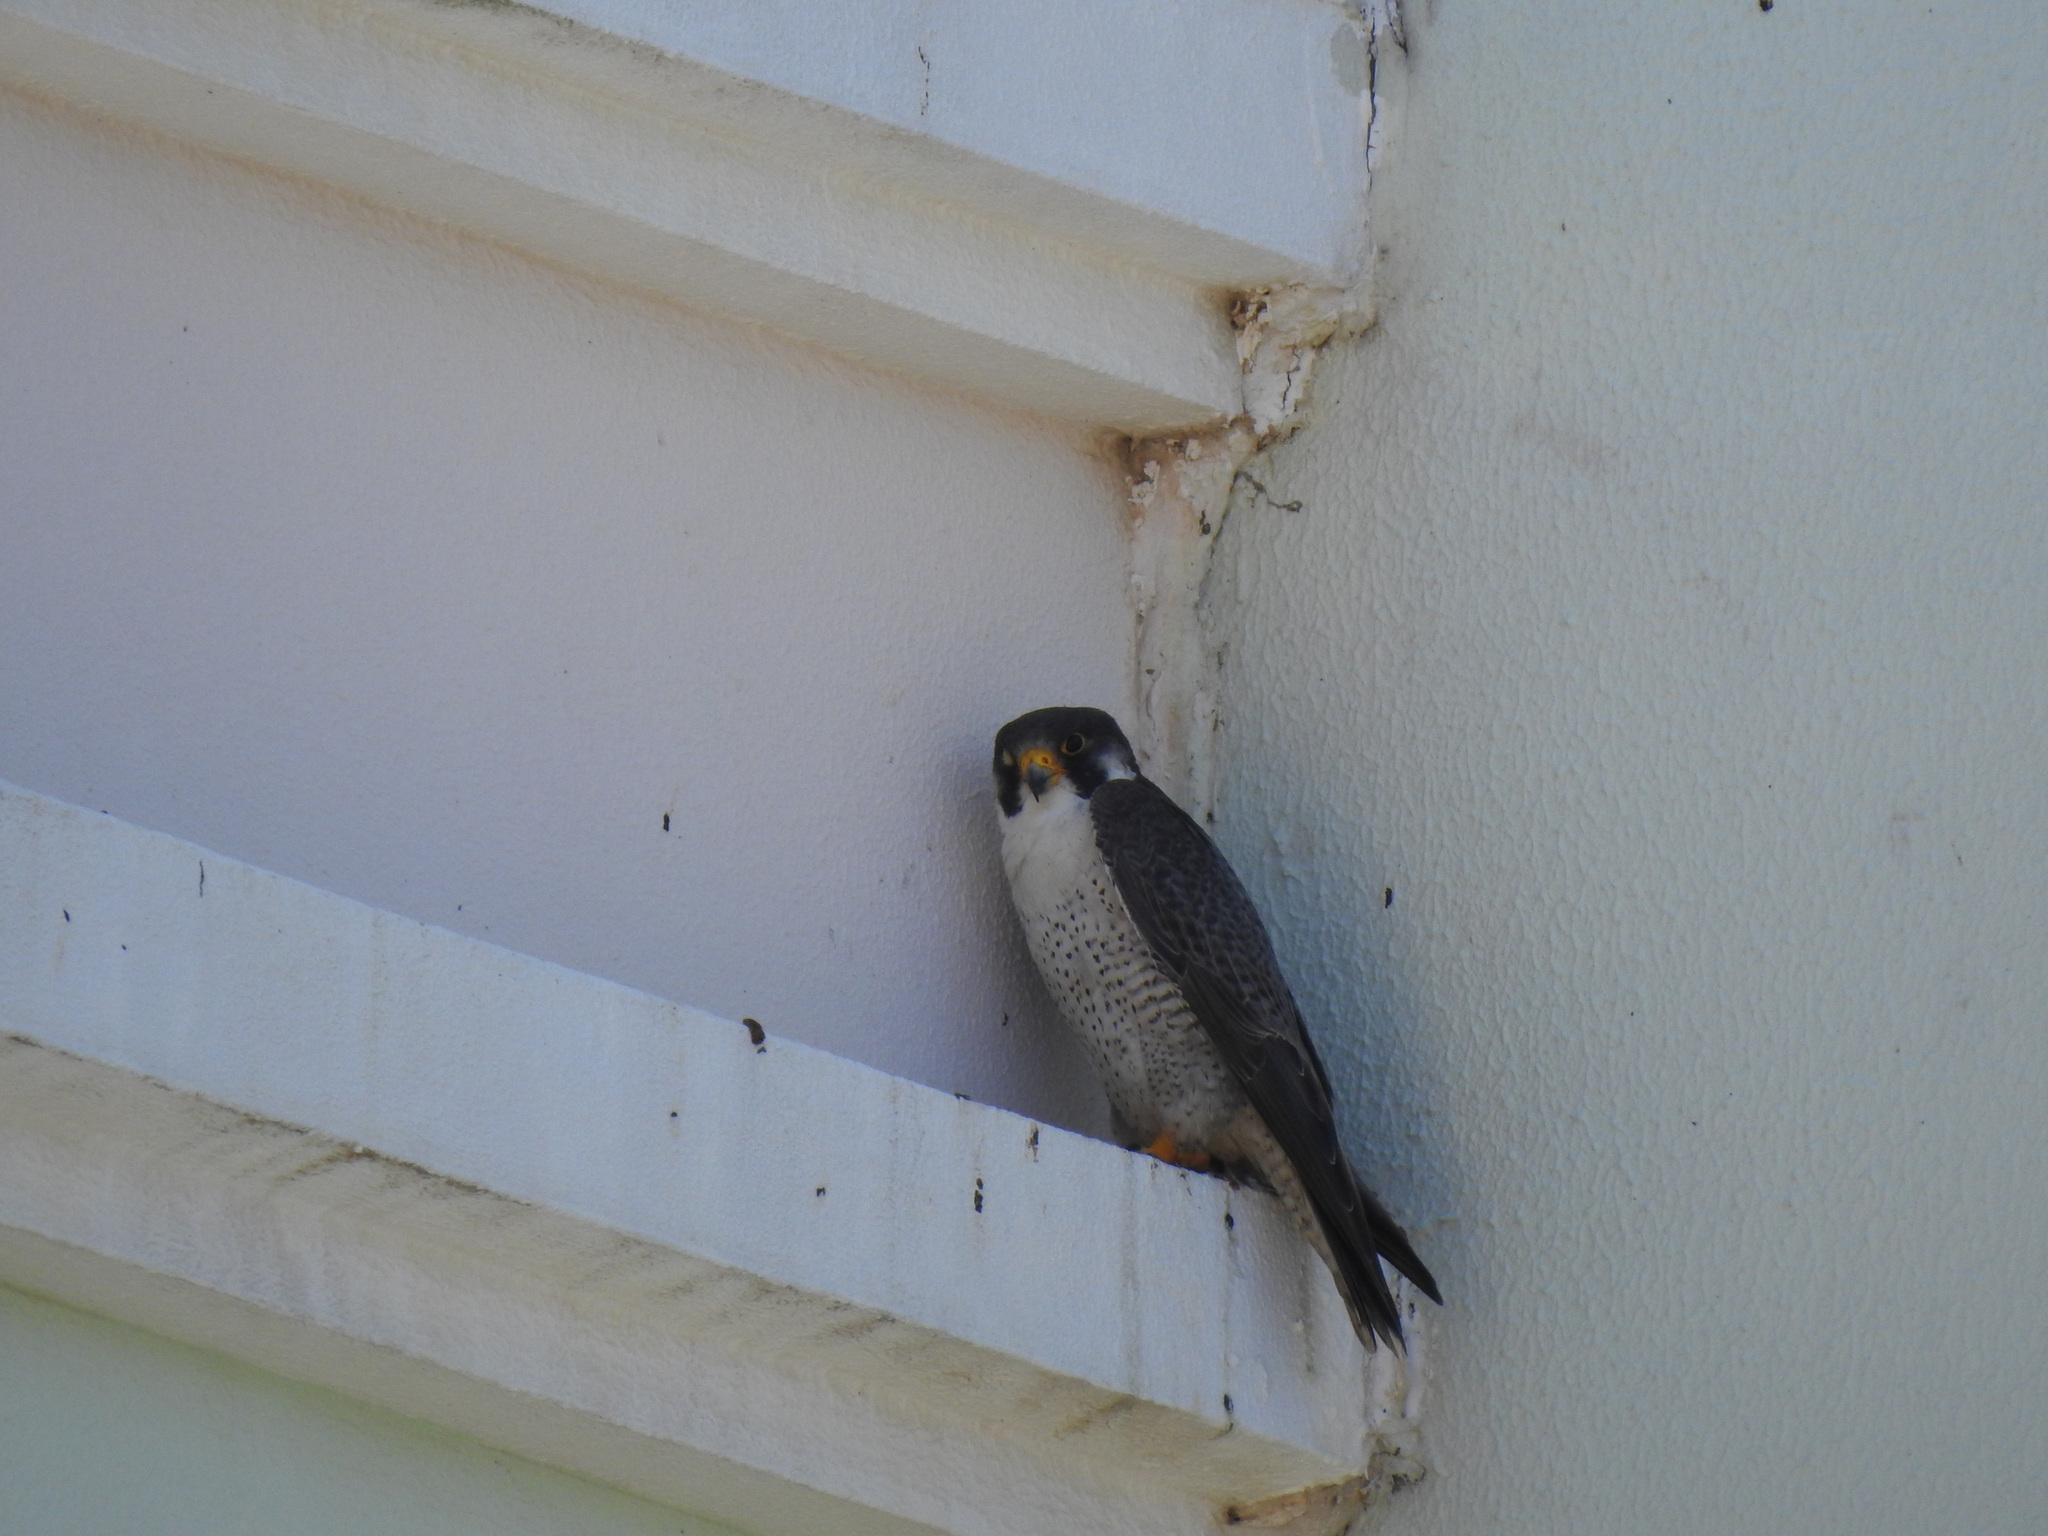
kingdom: Animalia
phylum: Chordata
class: Aves
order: Falconiformes
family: Falconidae
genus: Falco
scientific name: Falco peregrinus
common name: Peregrine falcon
